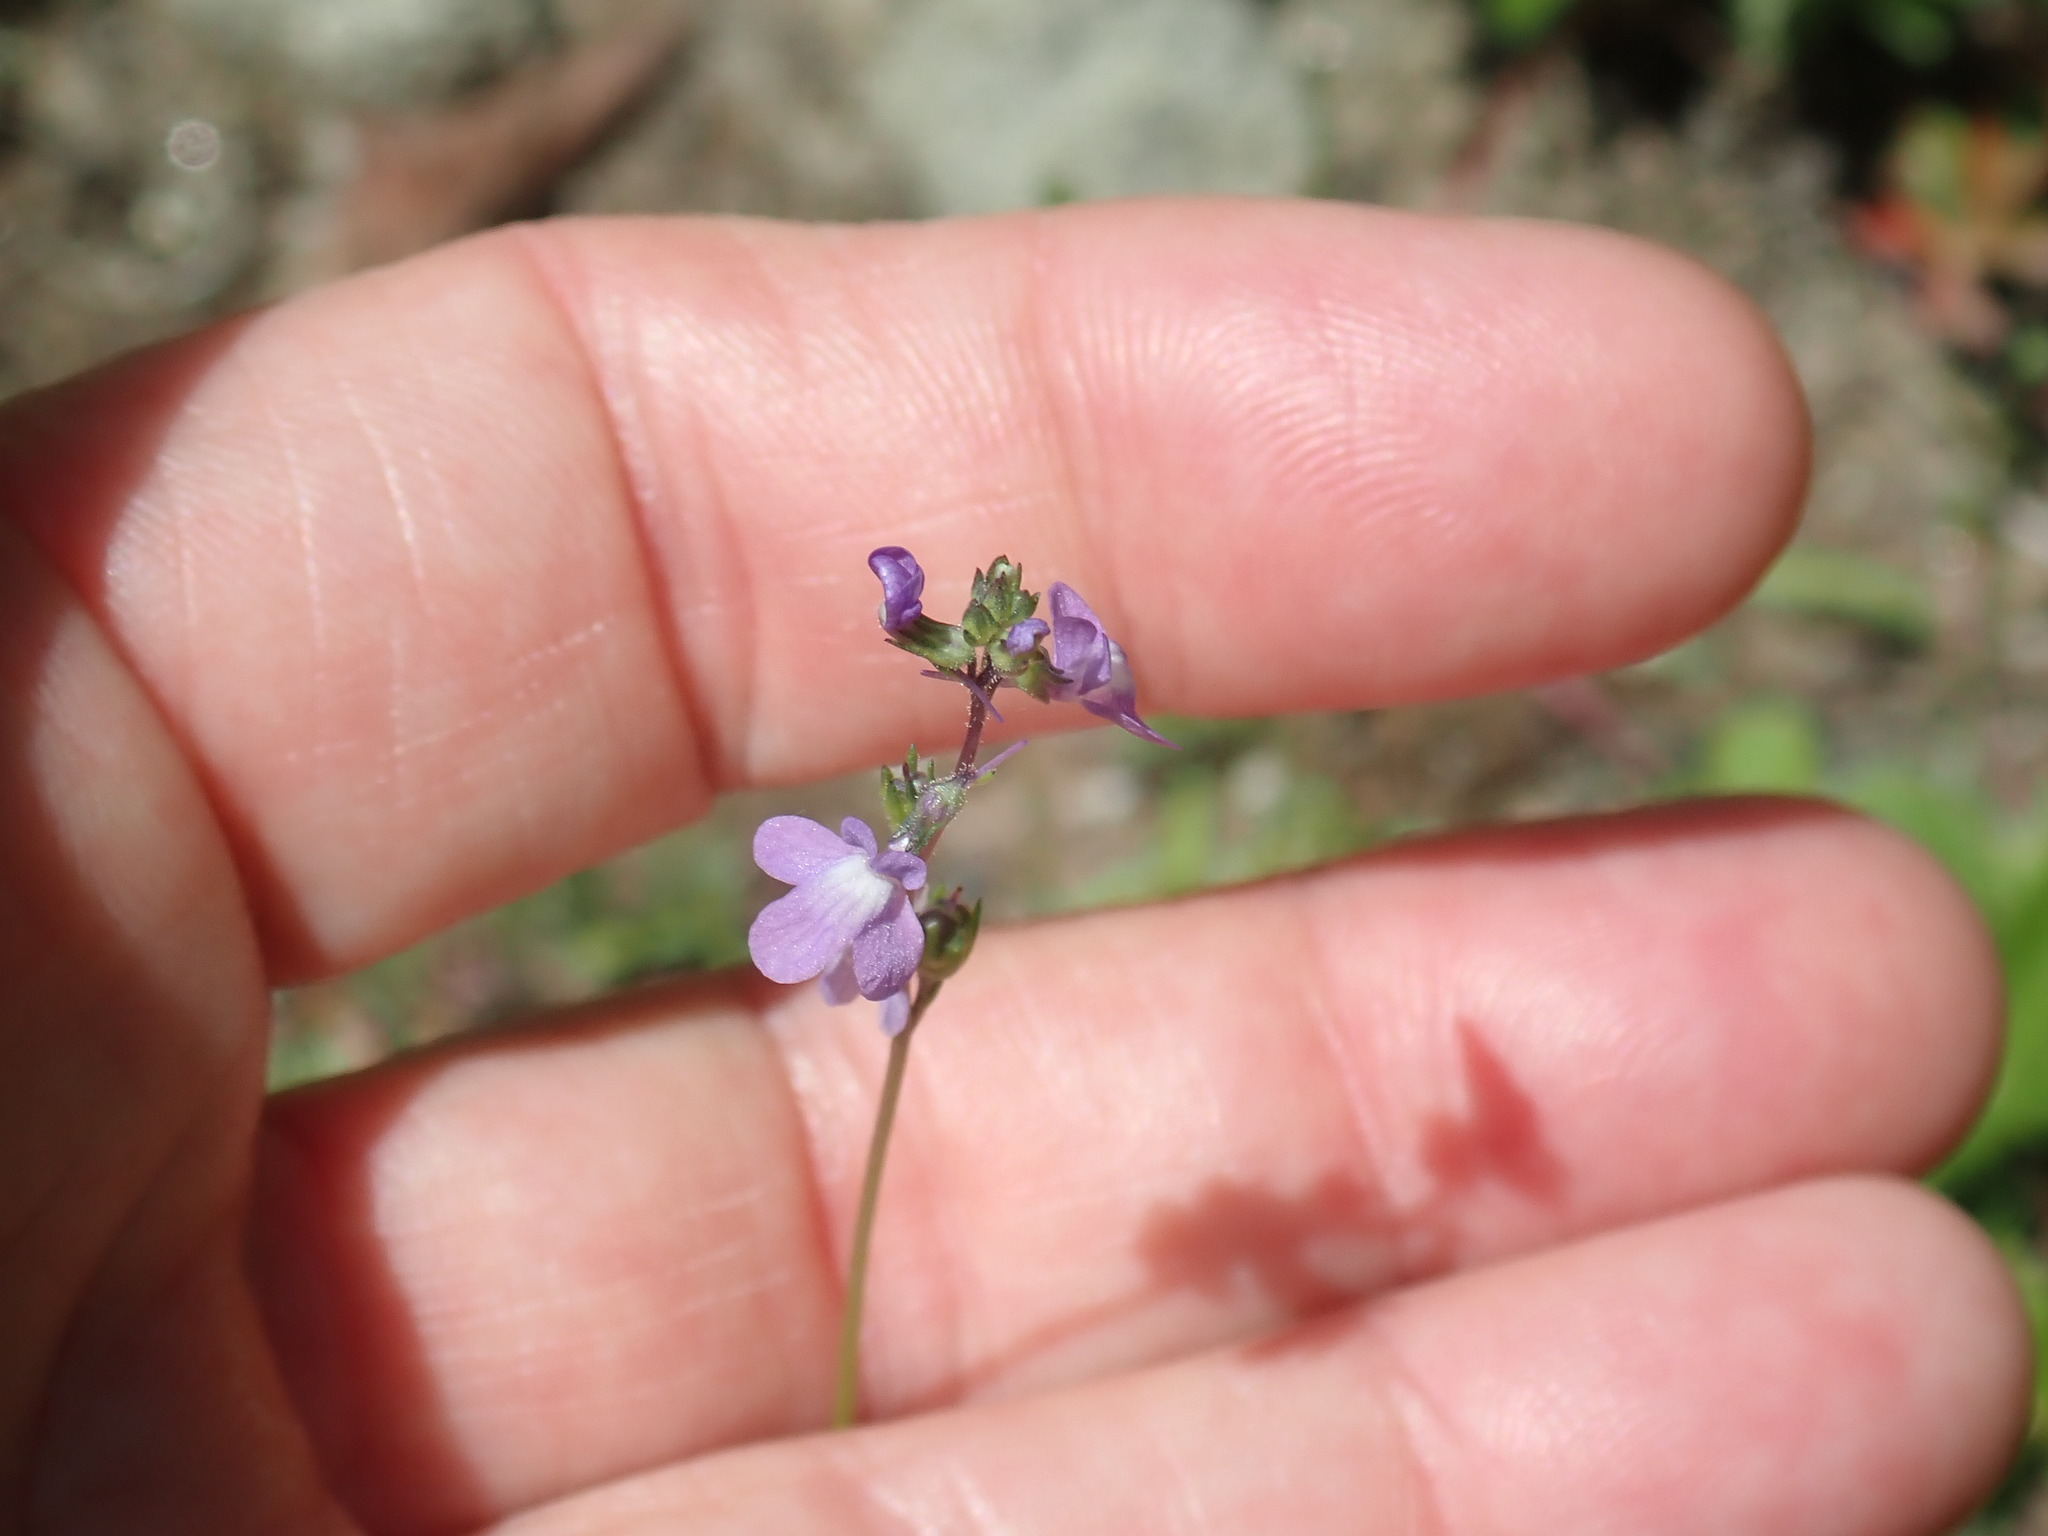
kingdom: Plantae
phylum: Tracheophyta
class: Magnoliopsida
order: Lamiales
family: Plantaginaceae
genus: Nuttallanthus
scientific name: Nuttallanthus canadensis
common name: Blue toadflax
